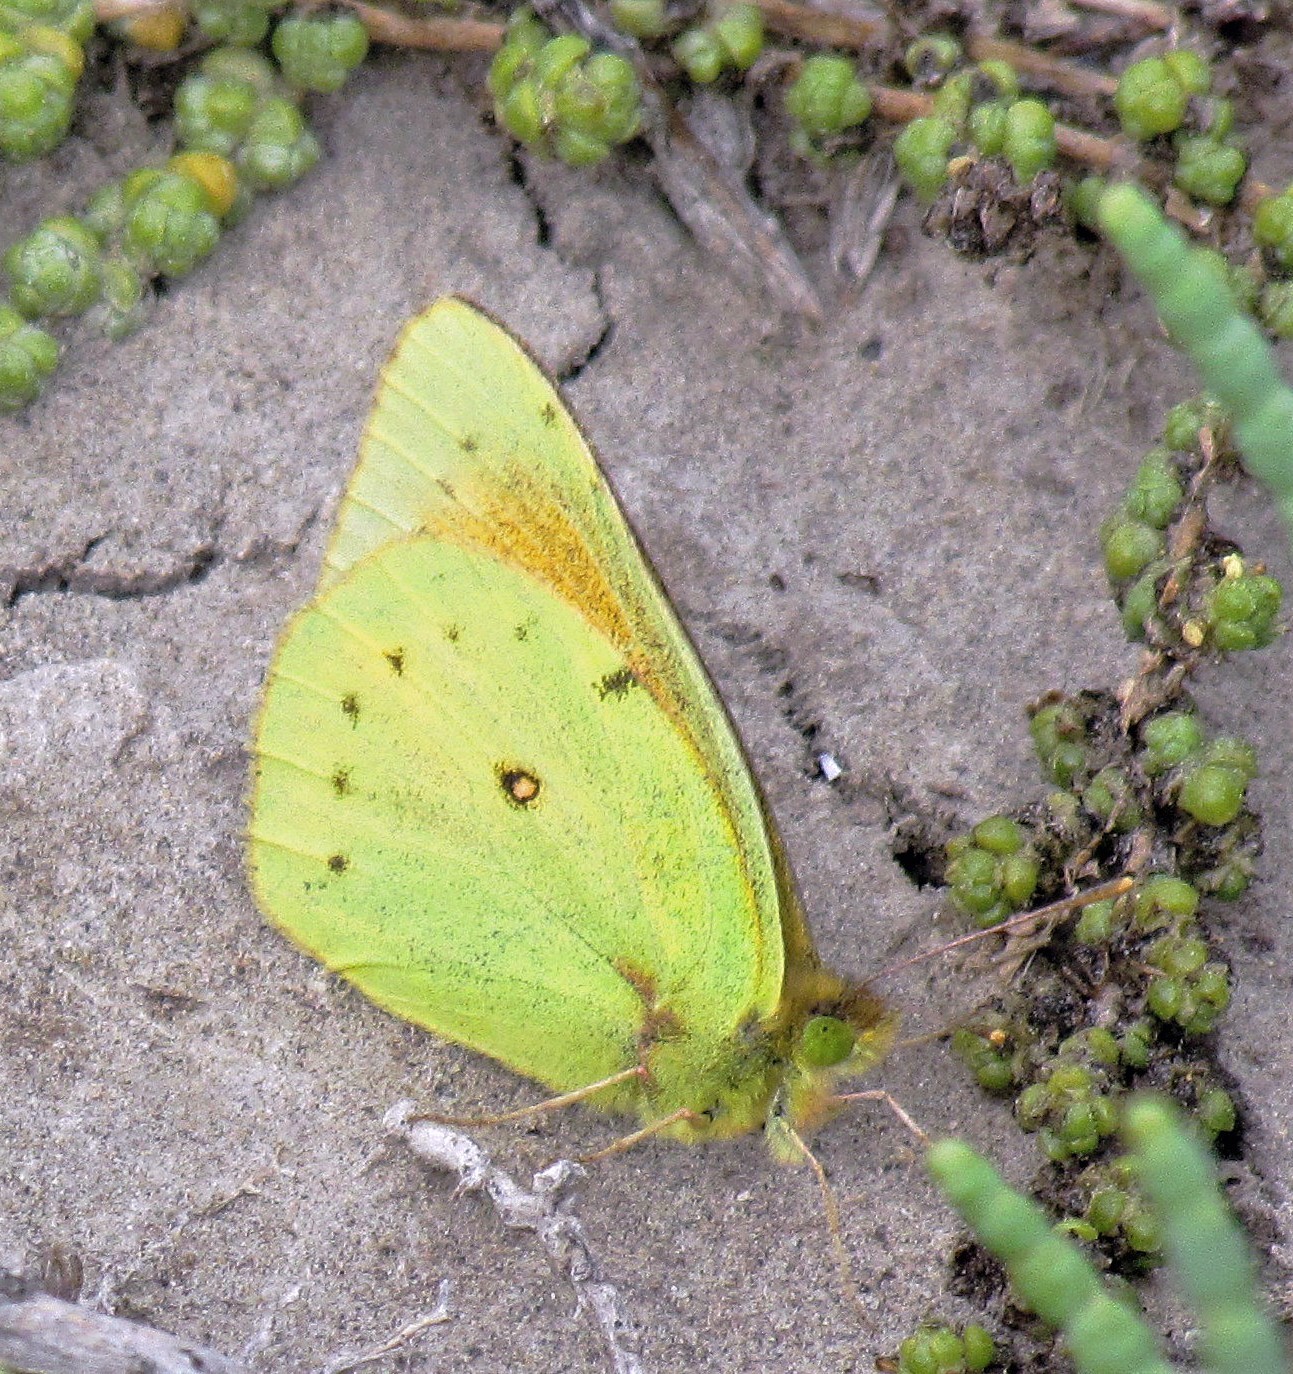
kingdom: Animalia
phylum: Arthropoda
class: Insecta
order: Lepidoptera
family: Pieridae
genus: Colias
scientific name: Colias lesbia
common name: Lesbia clouded yellow
